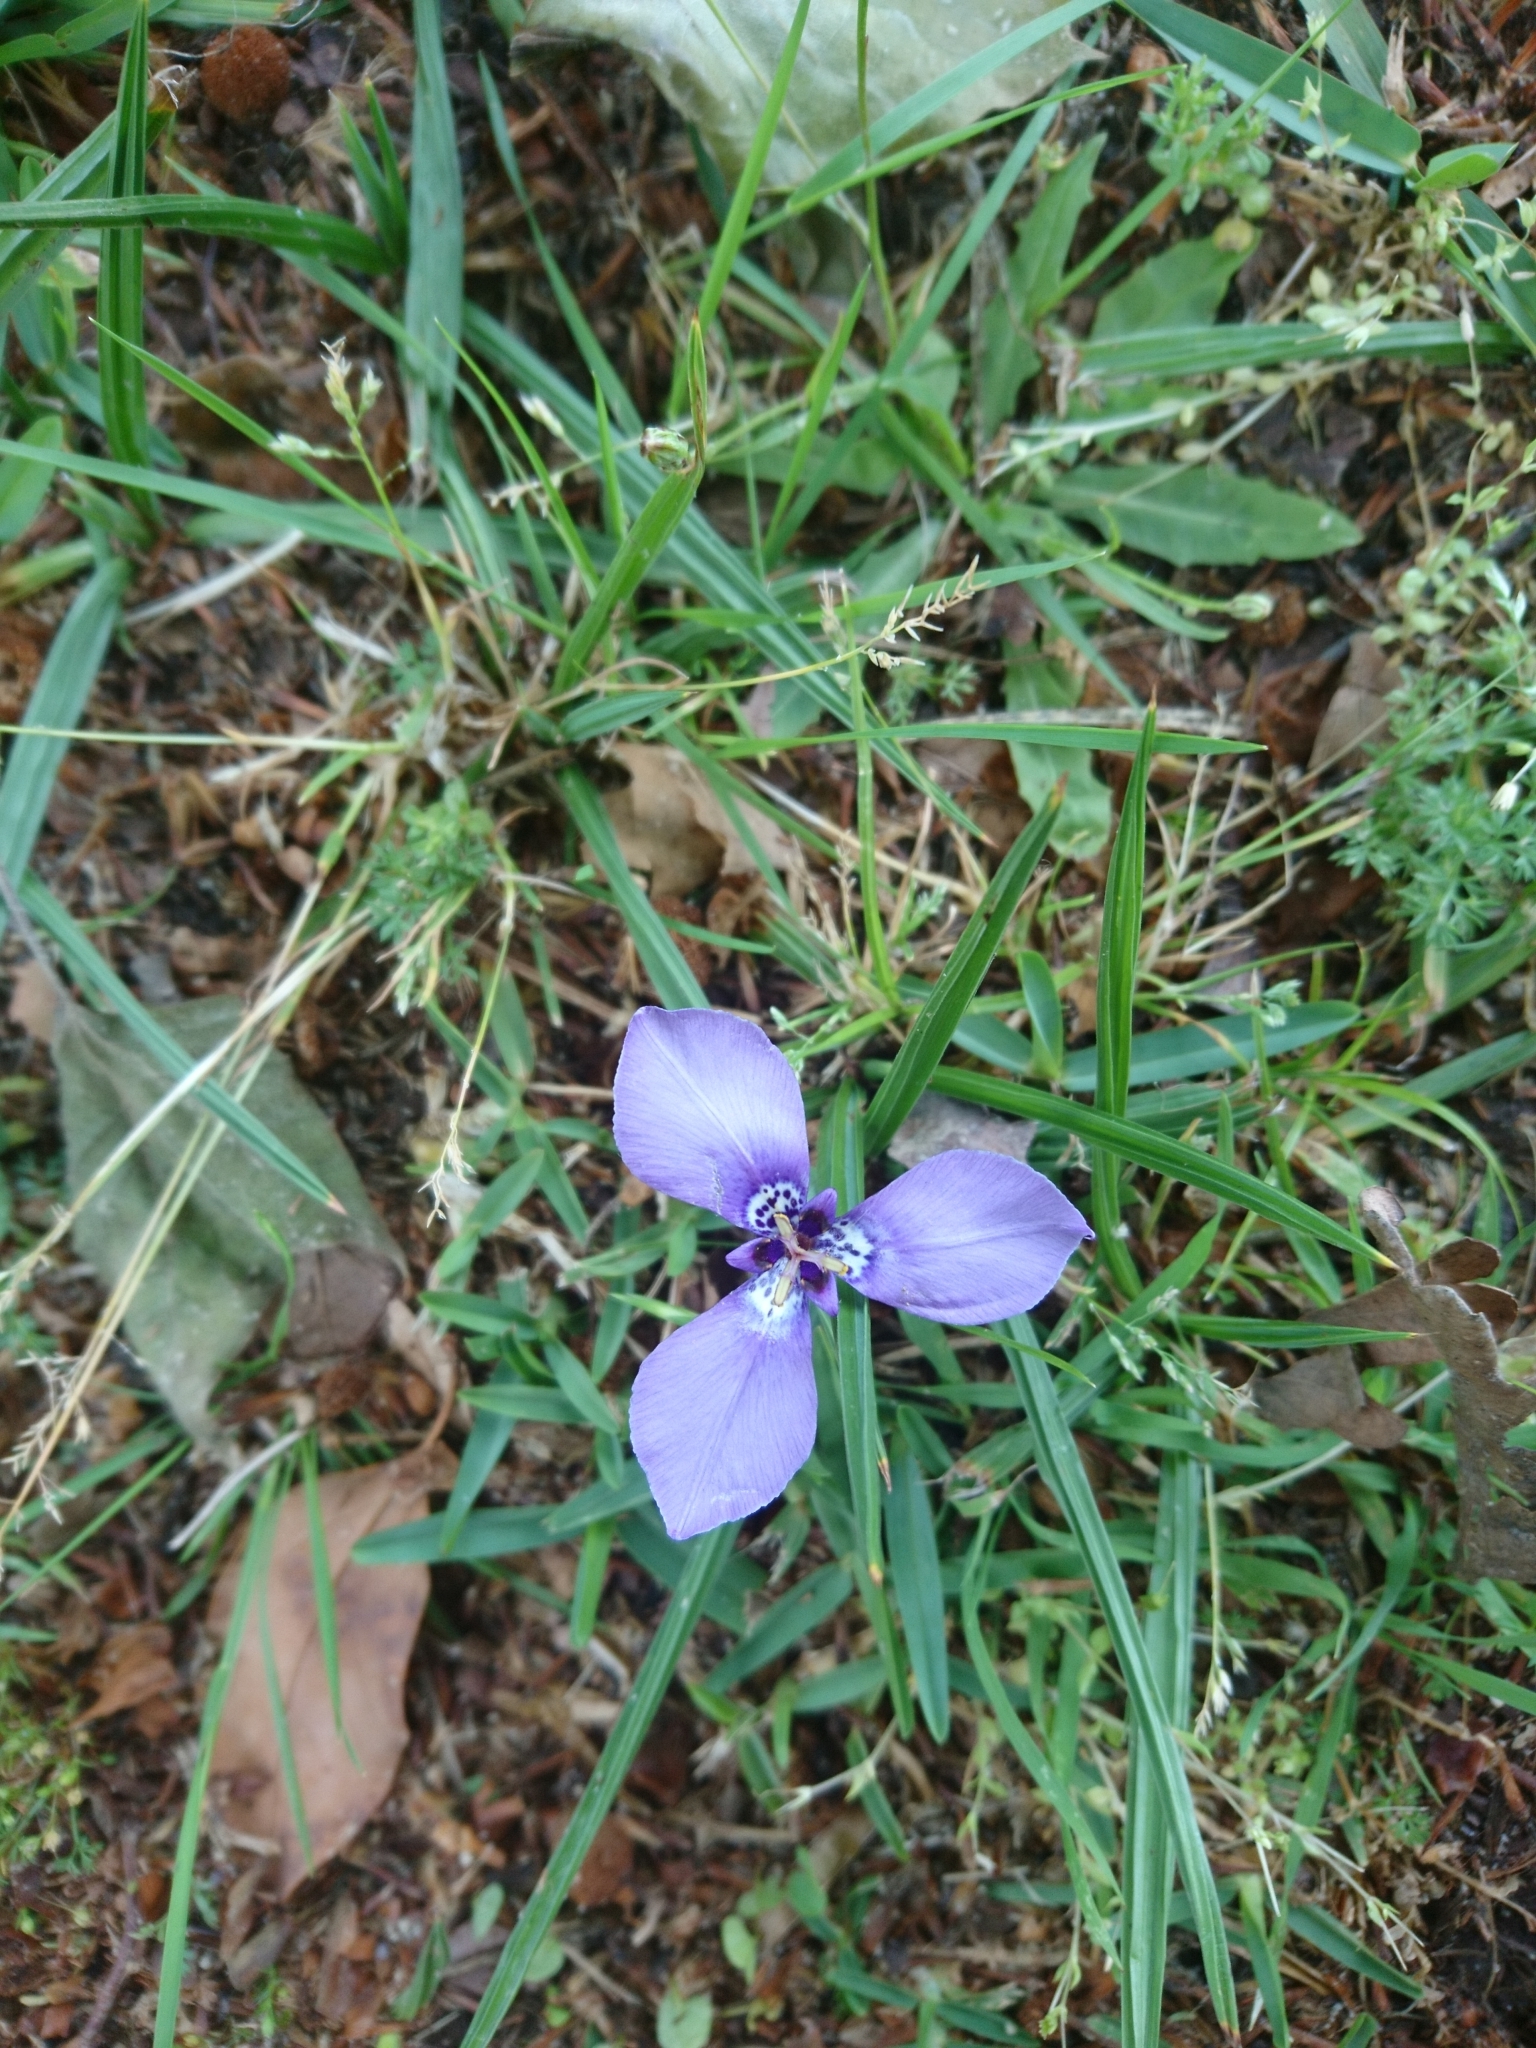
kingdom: Plantae
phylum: Tracheophyta
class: Liliopsida
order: Asparagales
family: Iridaceae
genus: Herbertia
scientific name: Herbertia lahue
